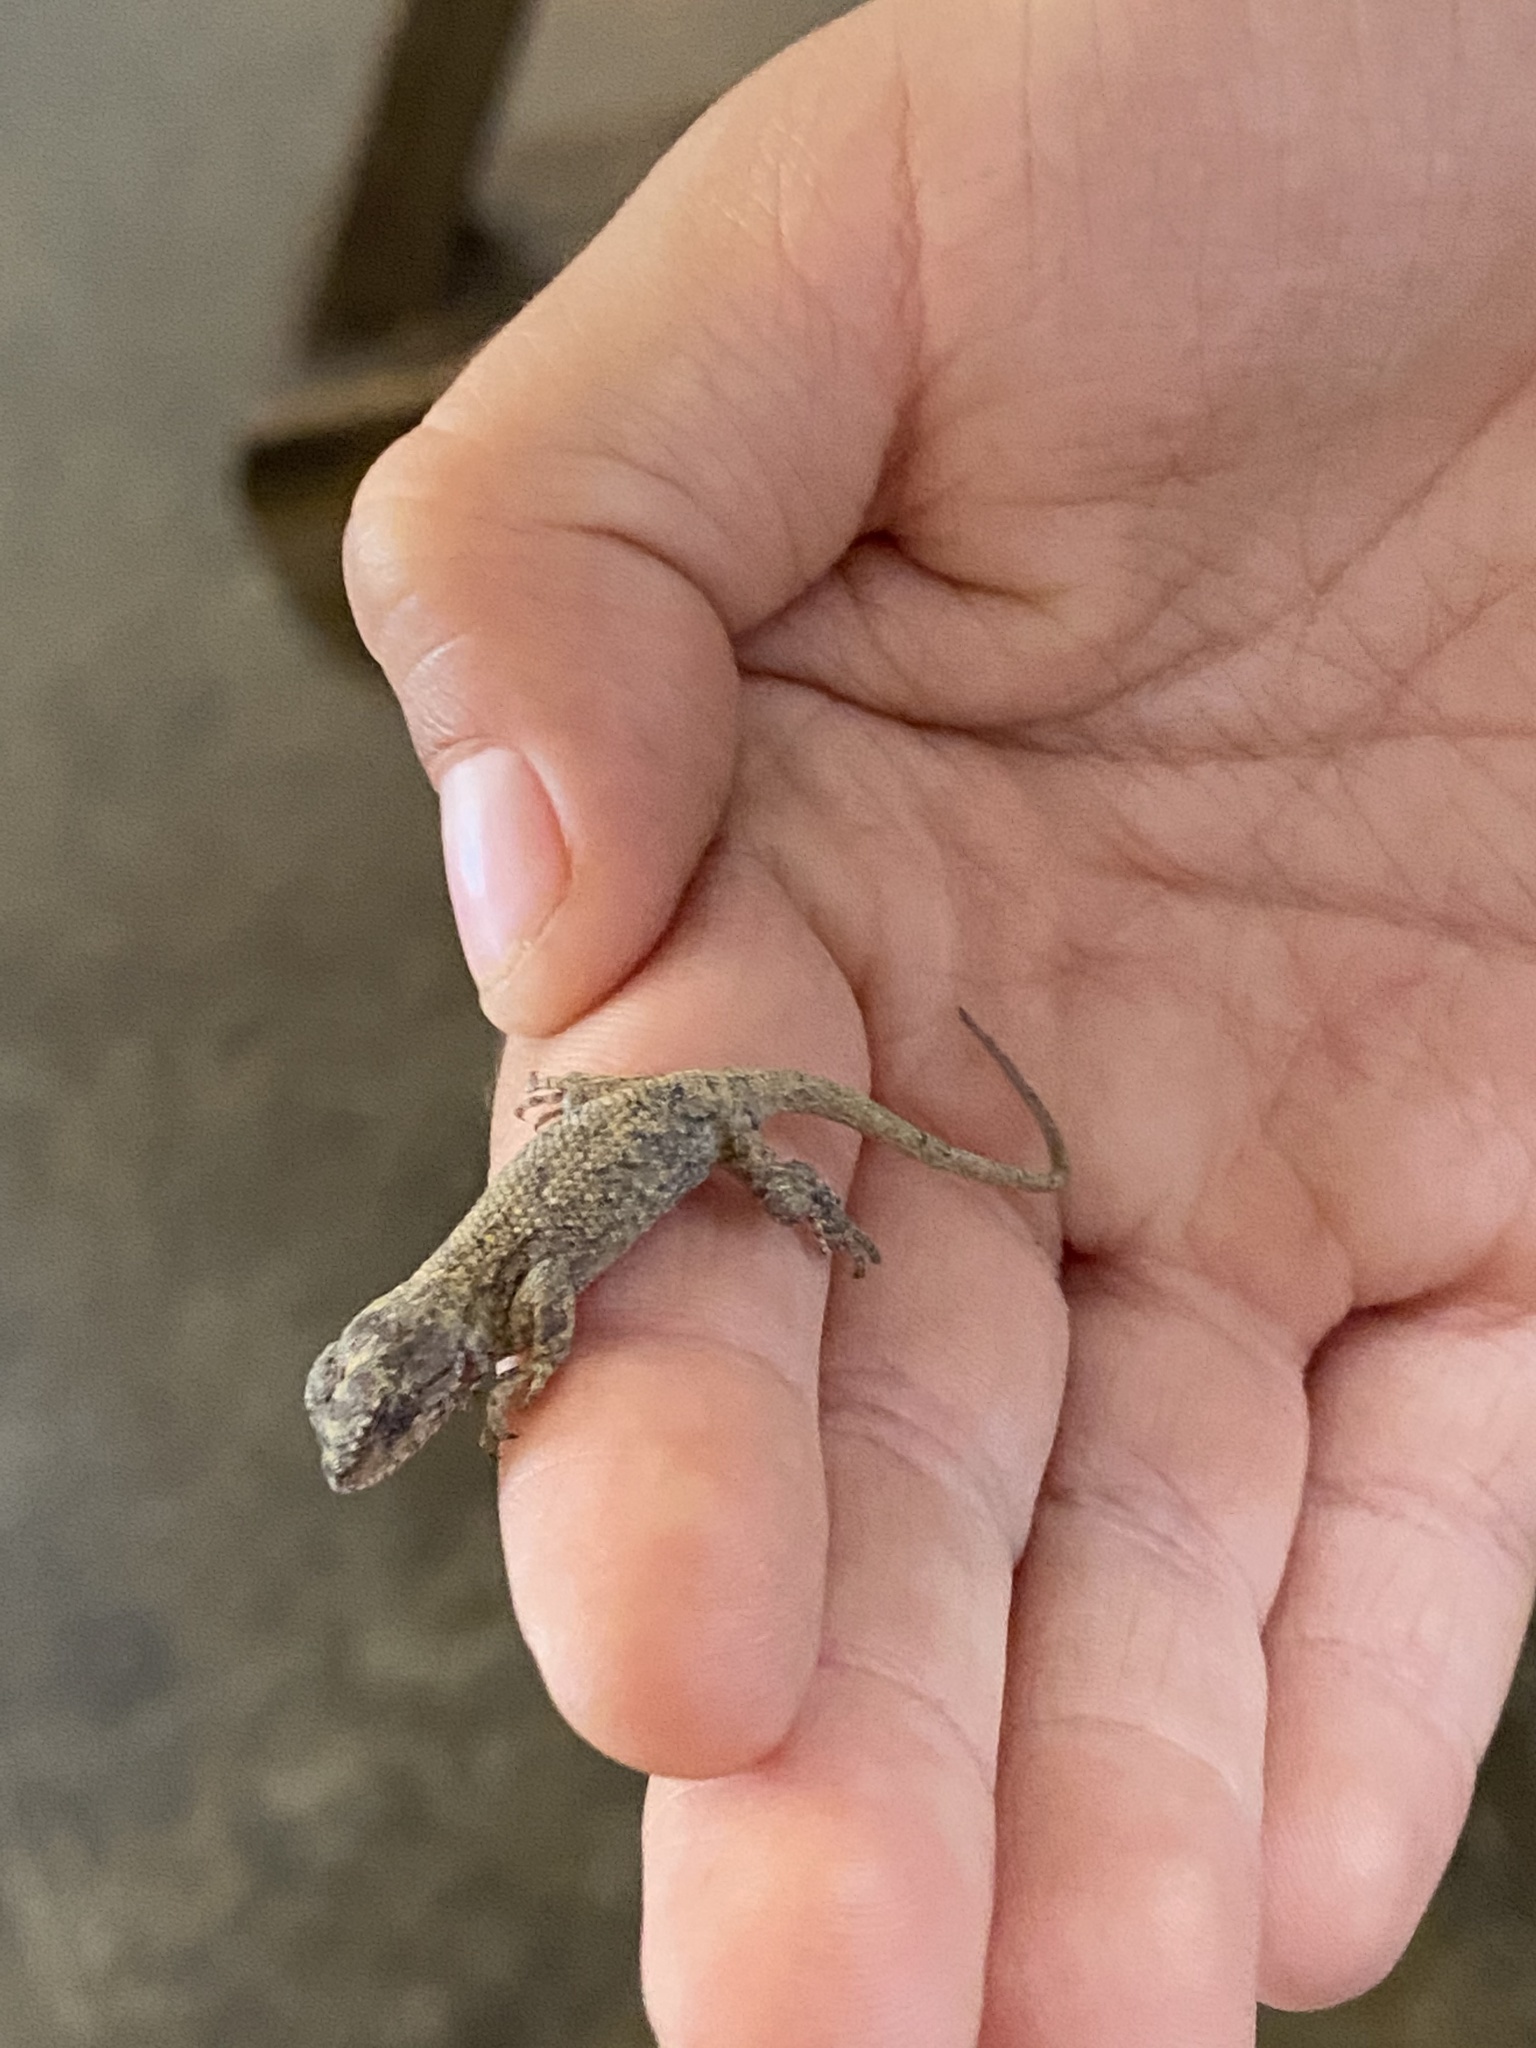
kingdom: Animalia
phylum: Chordata
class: Squamata
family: Phrynosomatidae
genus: Sceloporus
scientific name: Sceloporus undulatus
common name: Eastern fence lizard
